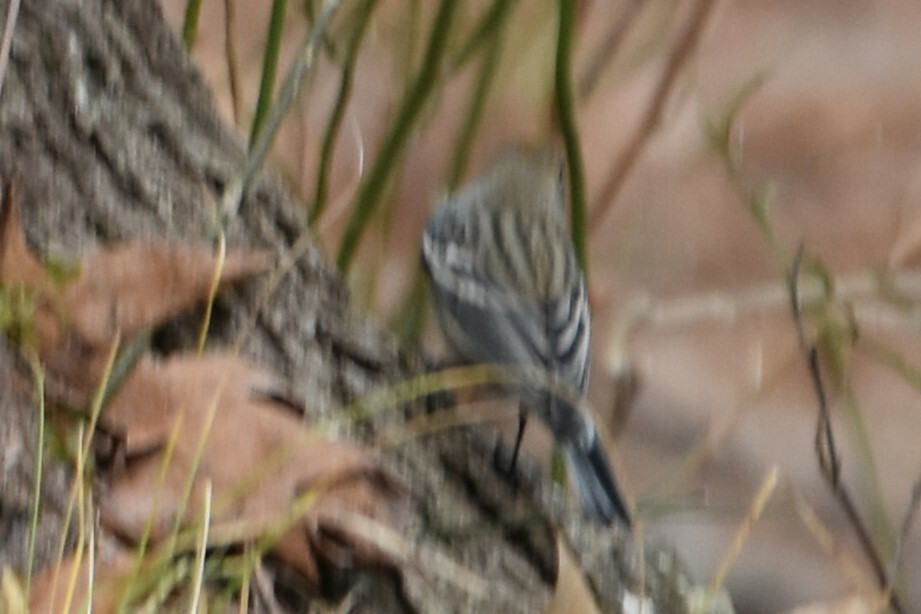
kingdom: Animalia
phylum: Chordata
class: Aves
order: Passeriformes
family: Parulidae
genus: Setophaga
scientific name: Setophaga coronata
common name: Myrtle warbler
